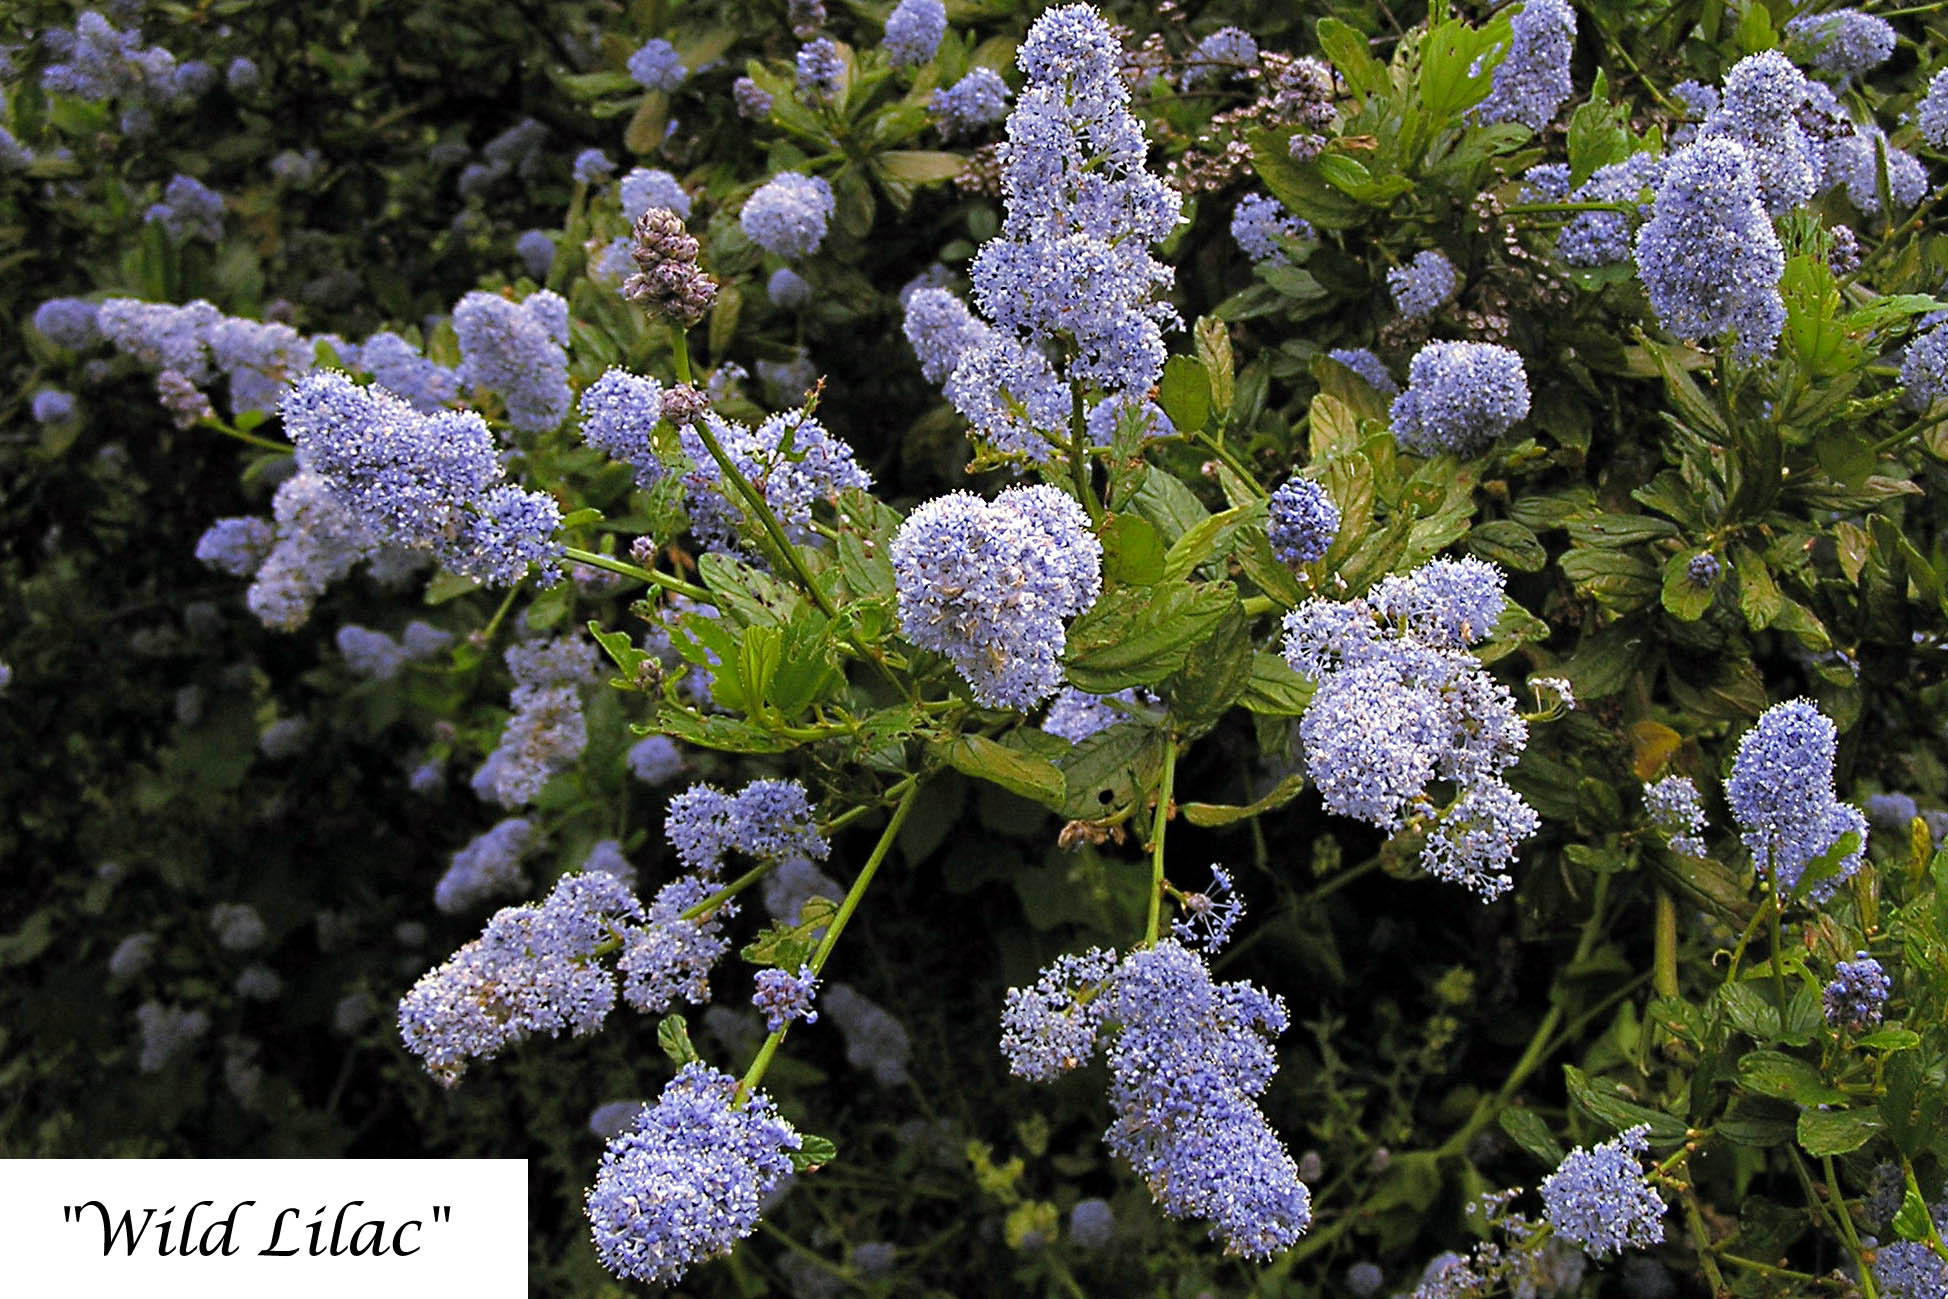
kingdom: Plantae
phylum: Tracheophyta
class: Magnoliopsida
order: Rosales
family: Rhamnaceae
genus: Ceanothus
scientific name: Ceanothus thyrsiflorus
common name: California-lilac
